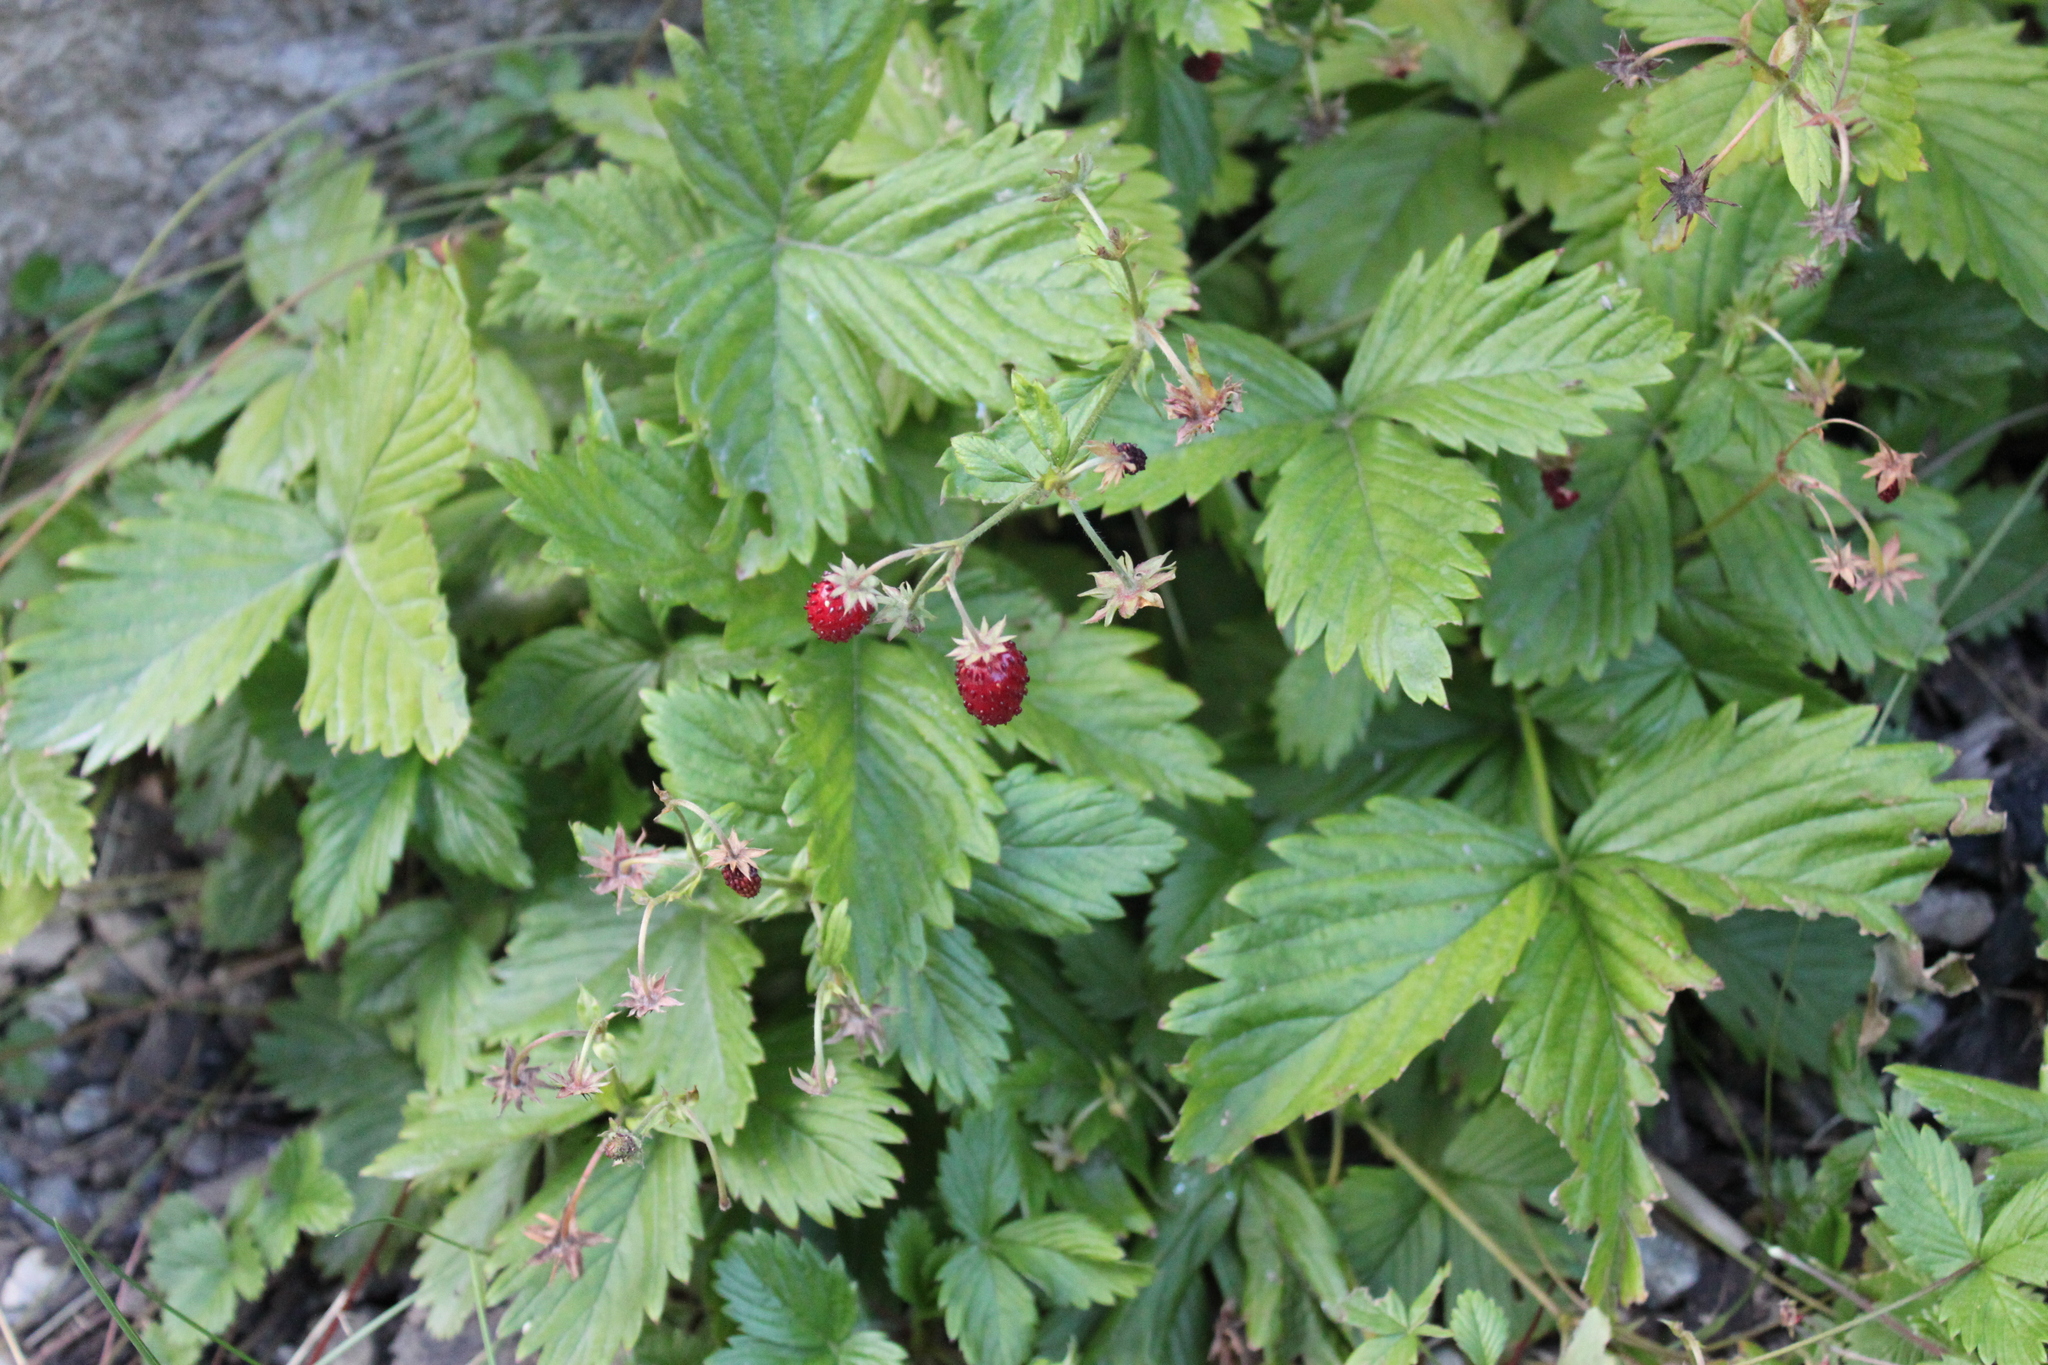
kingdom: Plantae
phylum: Tracheophyta
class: Magnoliopsida
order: Rosales
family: Rosaceae
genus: Fragaria
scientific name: Fragaria vesca
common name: Wild strawberry
